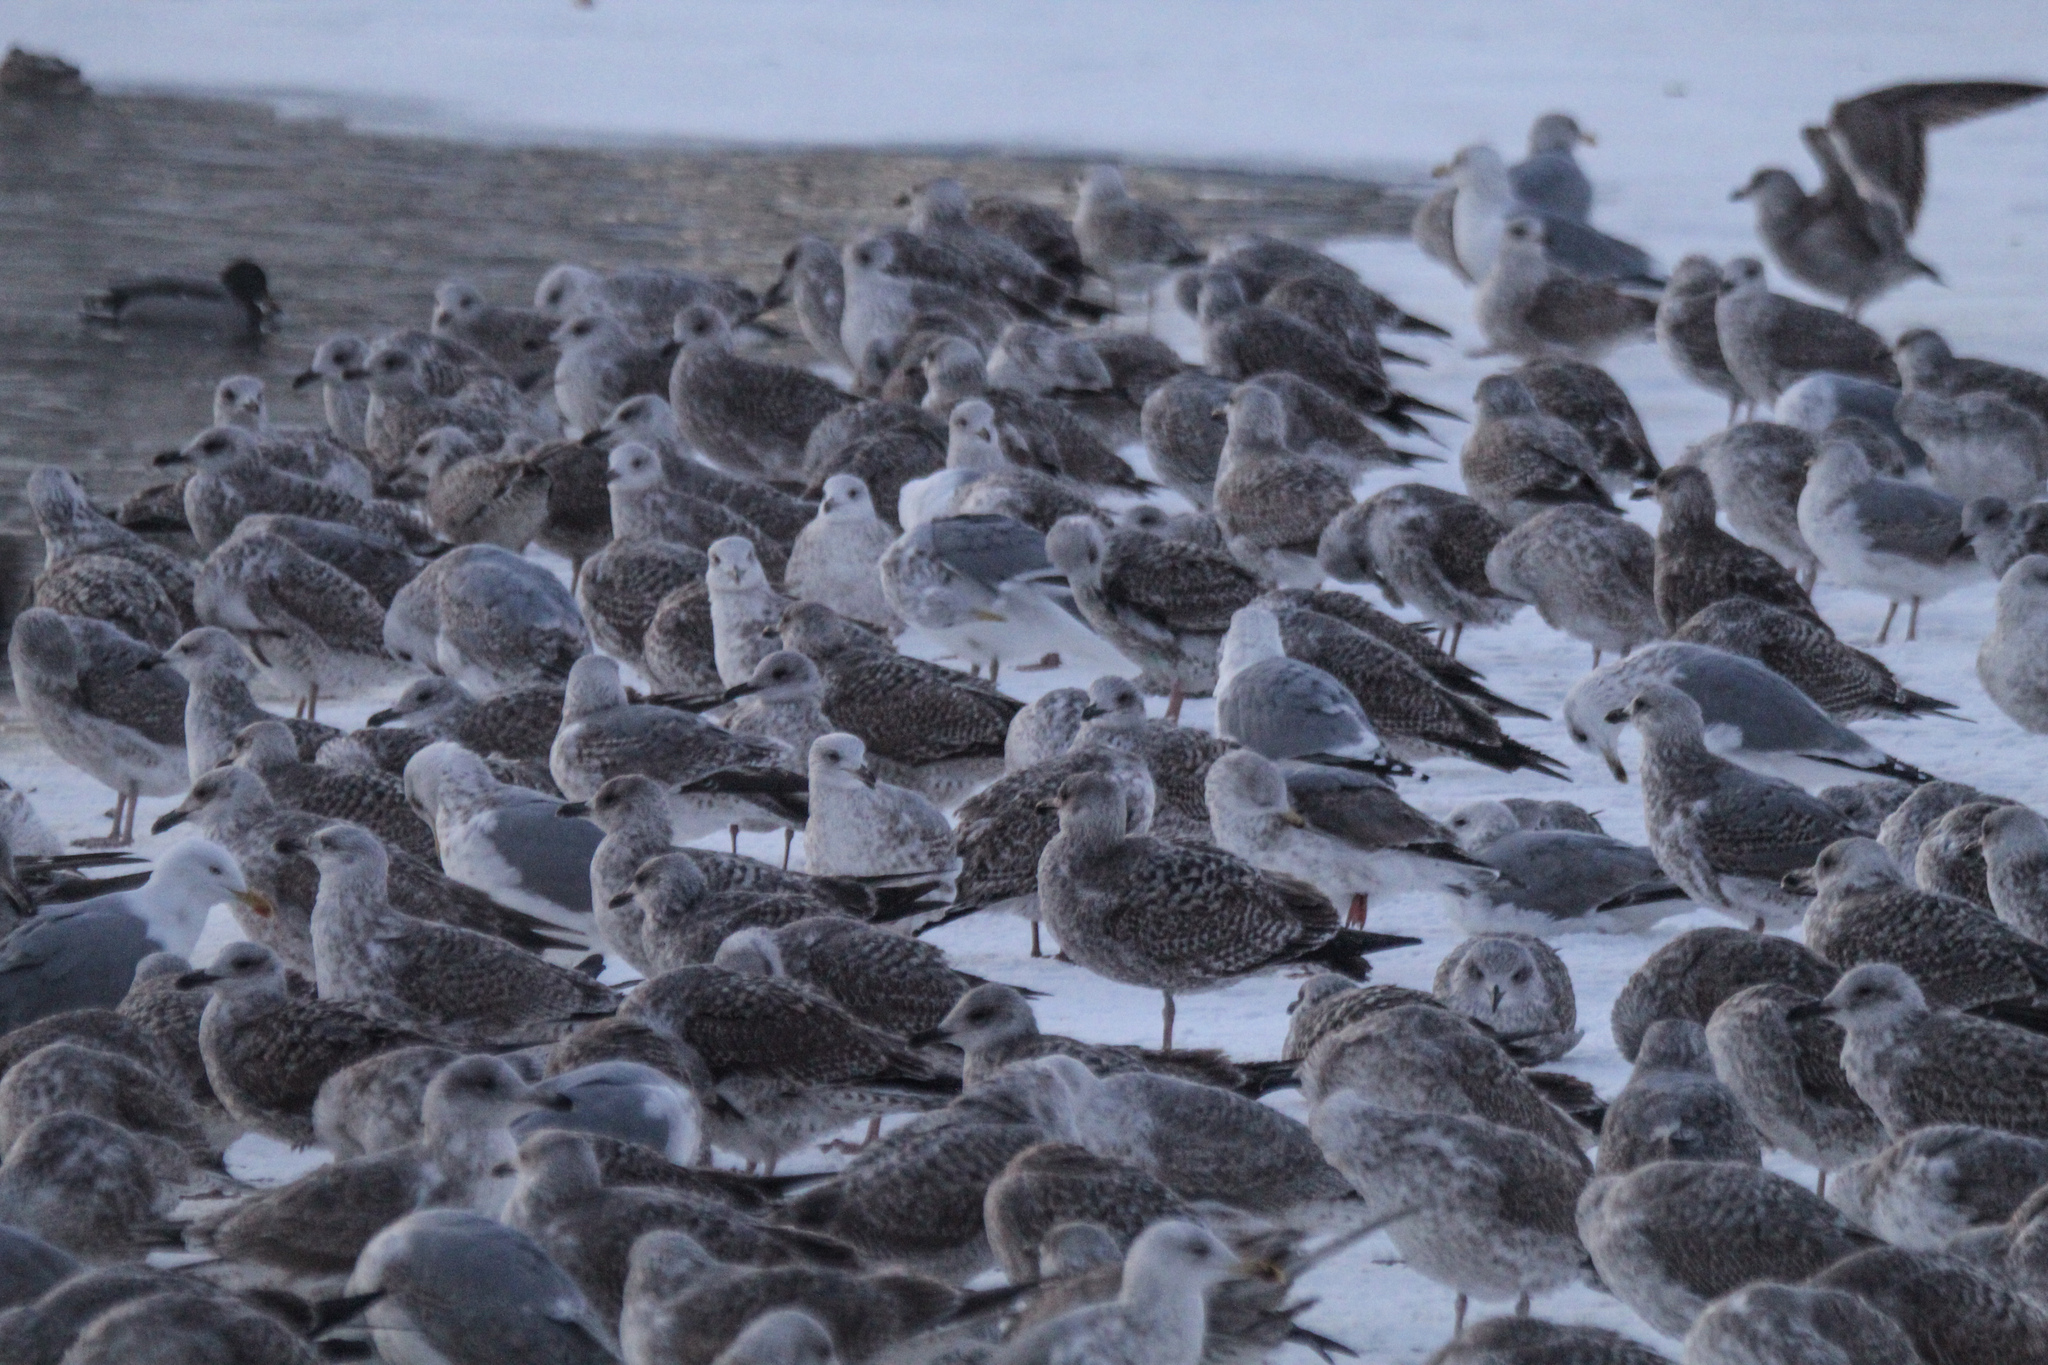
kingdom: Animalia
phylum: Chordata
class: Aves
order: Charadriiformes
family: Laridae
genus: Larus
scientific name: Larus argentatus
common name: Herring gull
